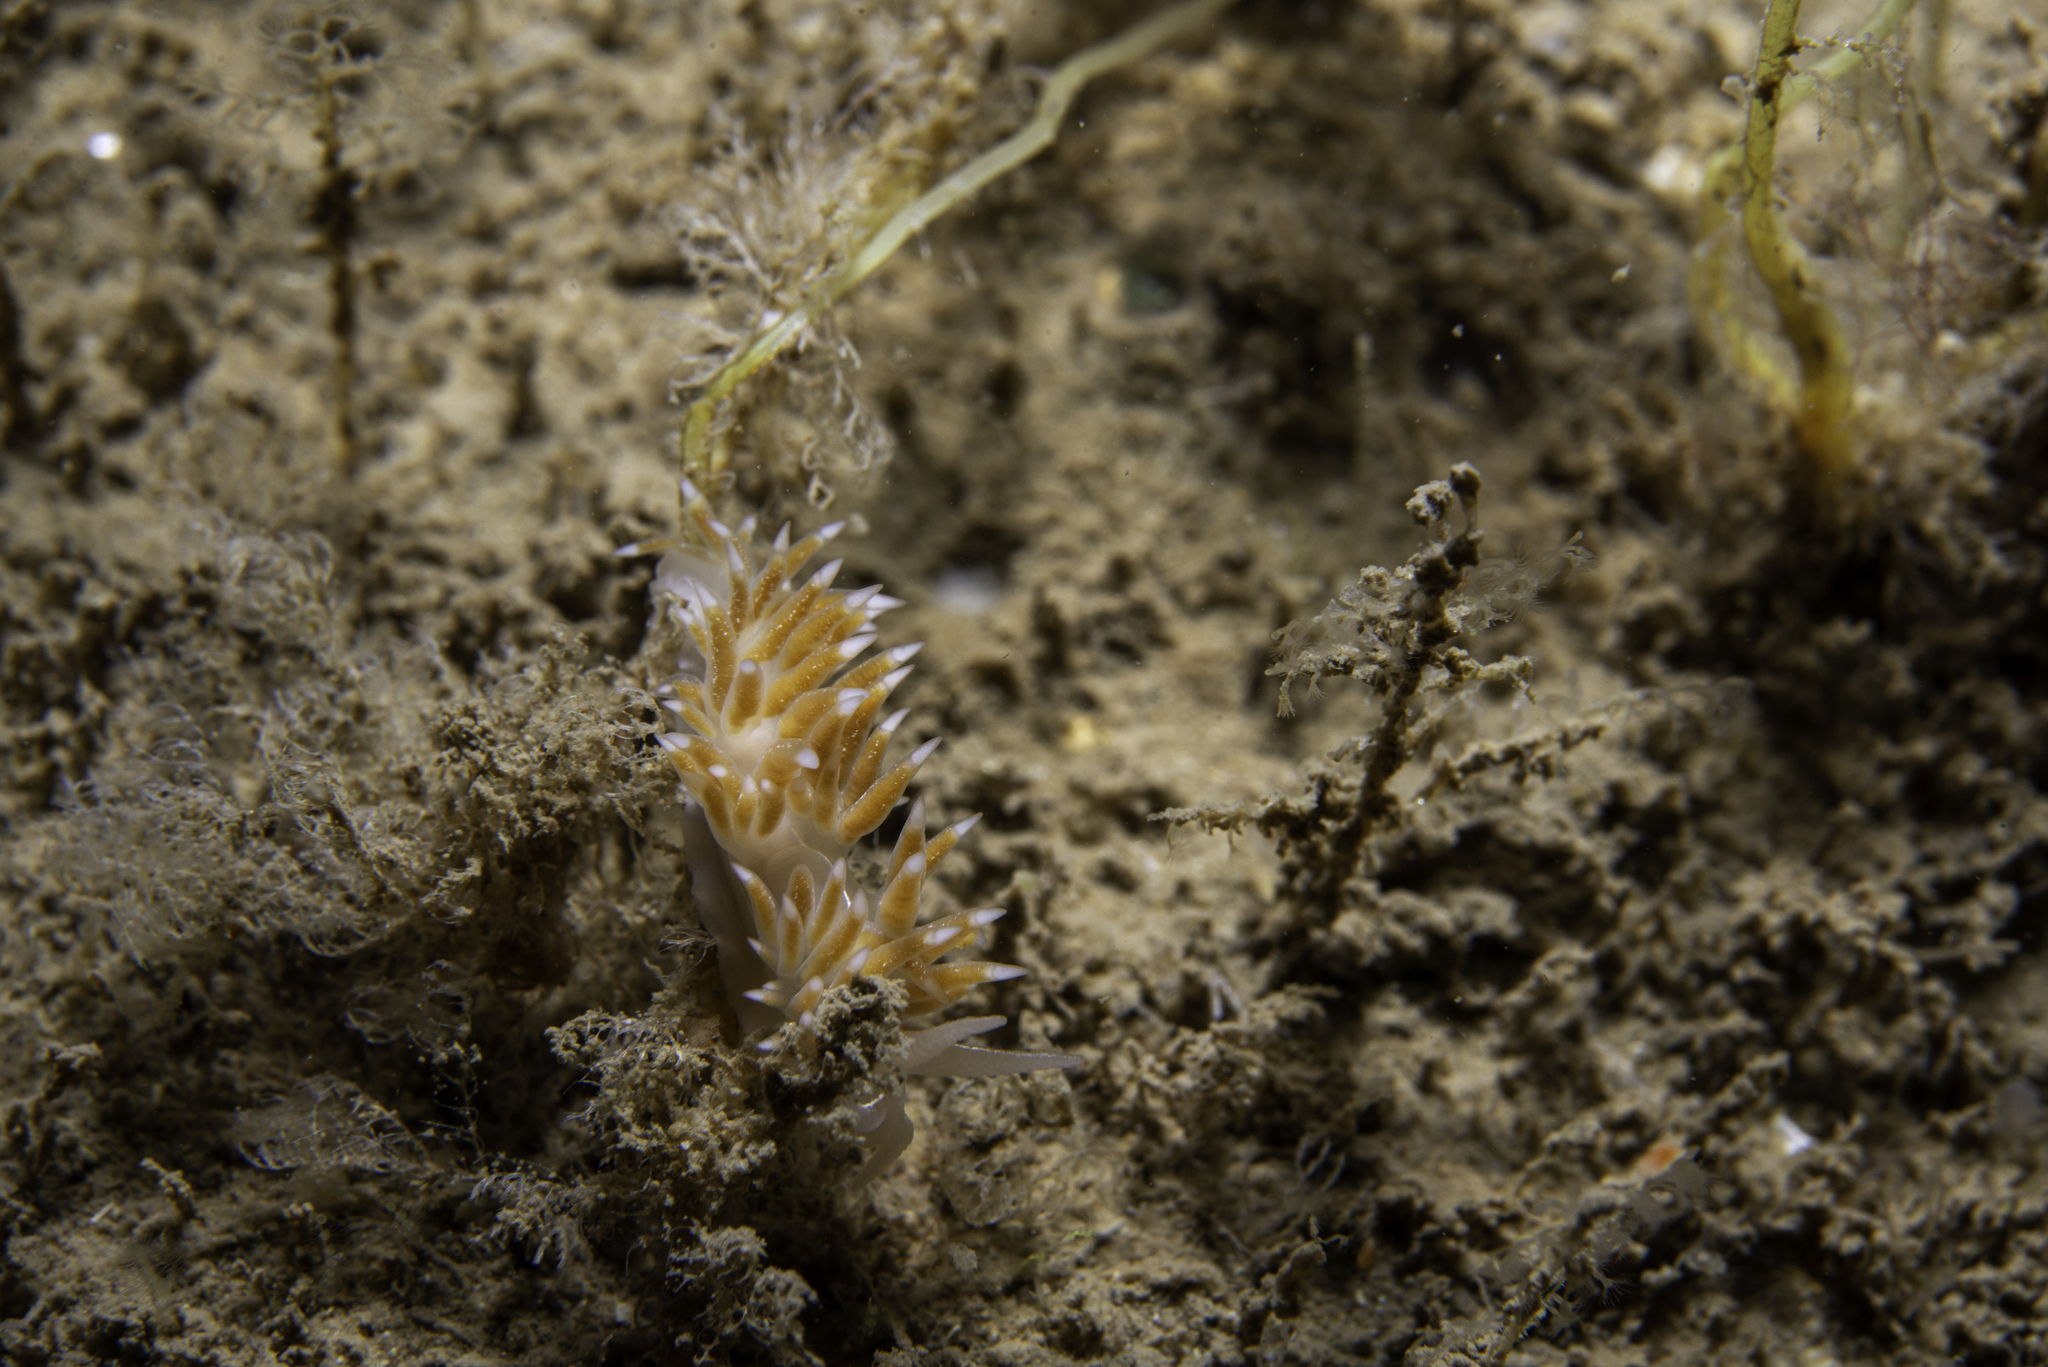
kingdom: Animalia
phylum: Mollusca
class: Gastropoda
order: Nudibranchia
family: Coryphellidae
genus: Coryphella
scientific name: Coryphella chriskaugei
